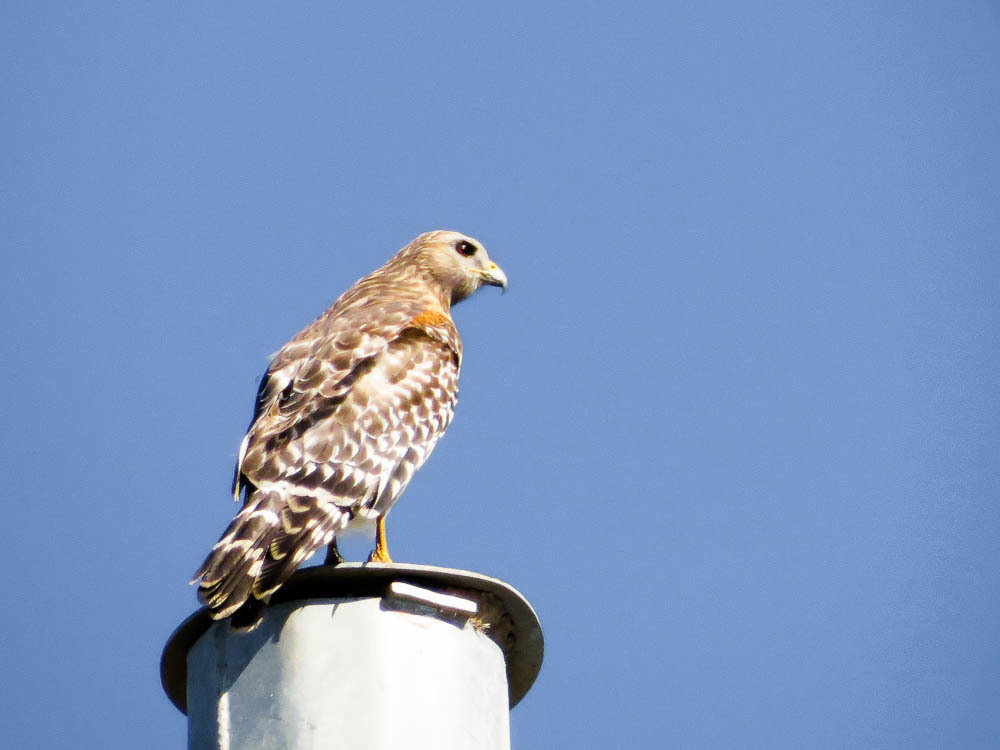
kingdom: Animalia
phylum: Chordata
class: Aves
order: Accipitriformes
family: Accipitridae
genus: Buteo
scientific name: Buteo lineatus
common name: Red-shouldered hawk
